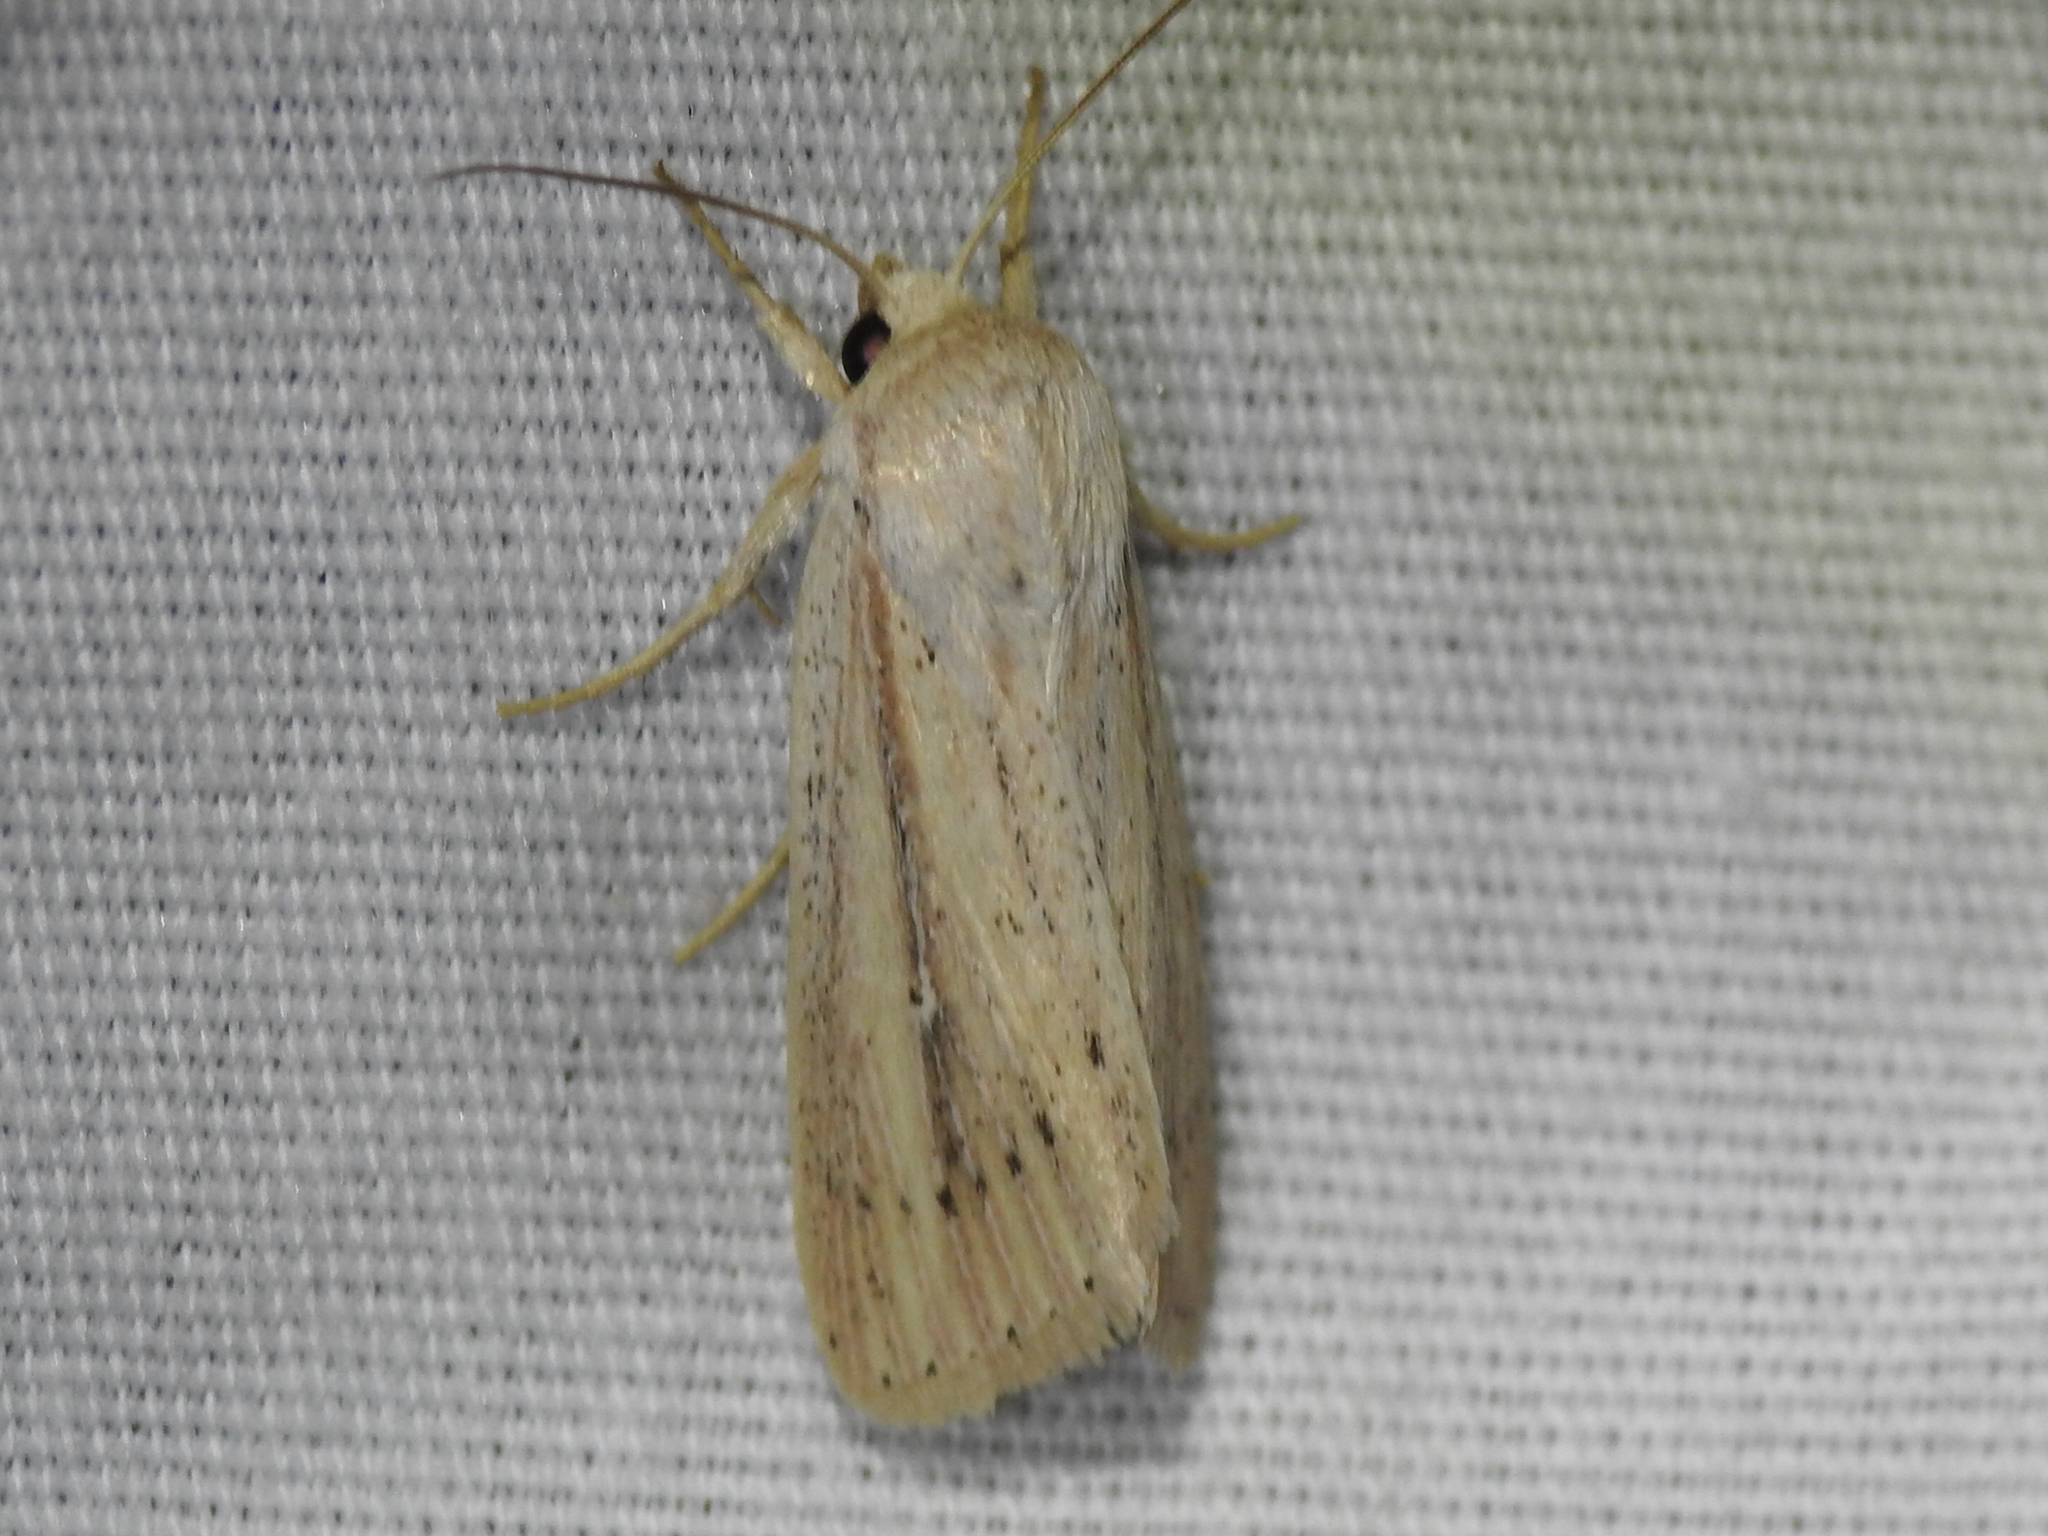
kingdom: Animalia
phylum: Arthropoda
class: Insecta
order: Lepidoptera
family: Noctuidae
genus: Leucania
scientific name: Leucania extincta
